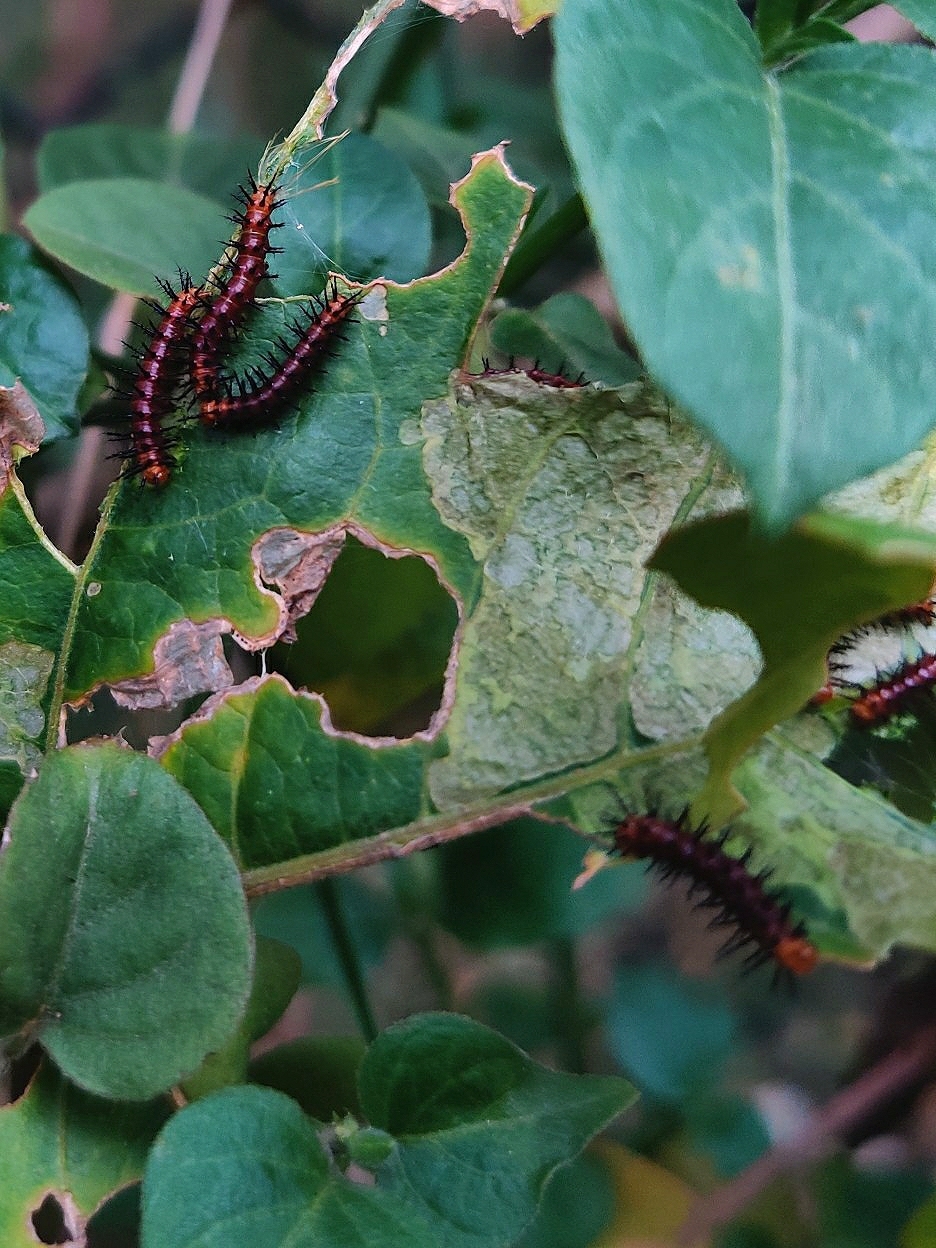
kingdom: Animalia
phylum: Arthropoda
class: Insecta
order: Lepidoptera
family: Nymphalidae
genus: Acraea
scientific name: Acraea terpsicore
